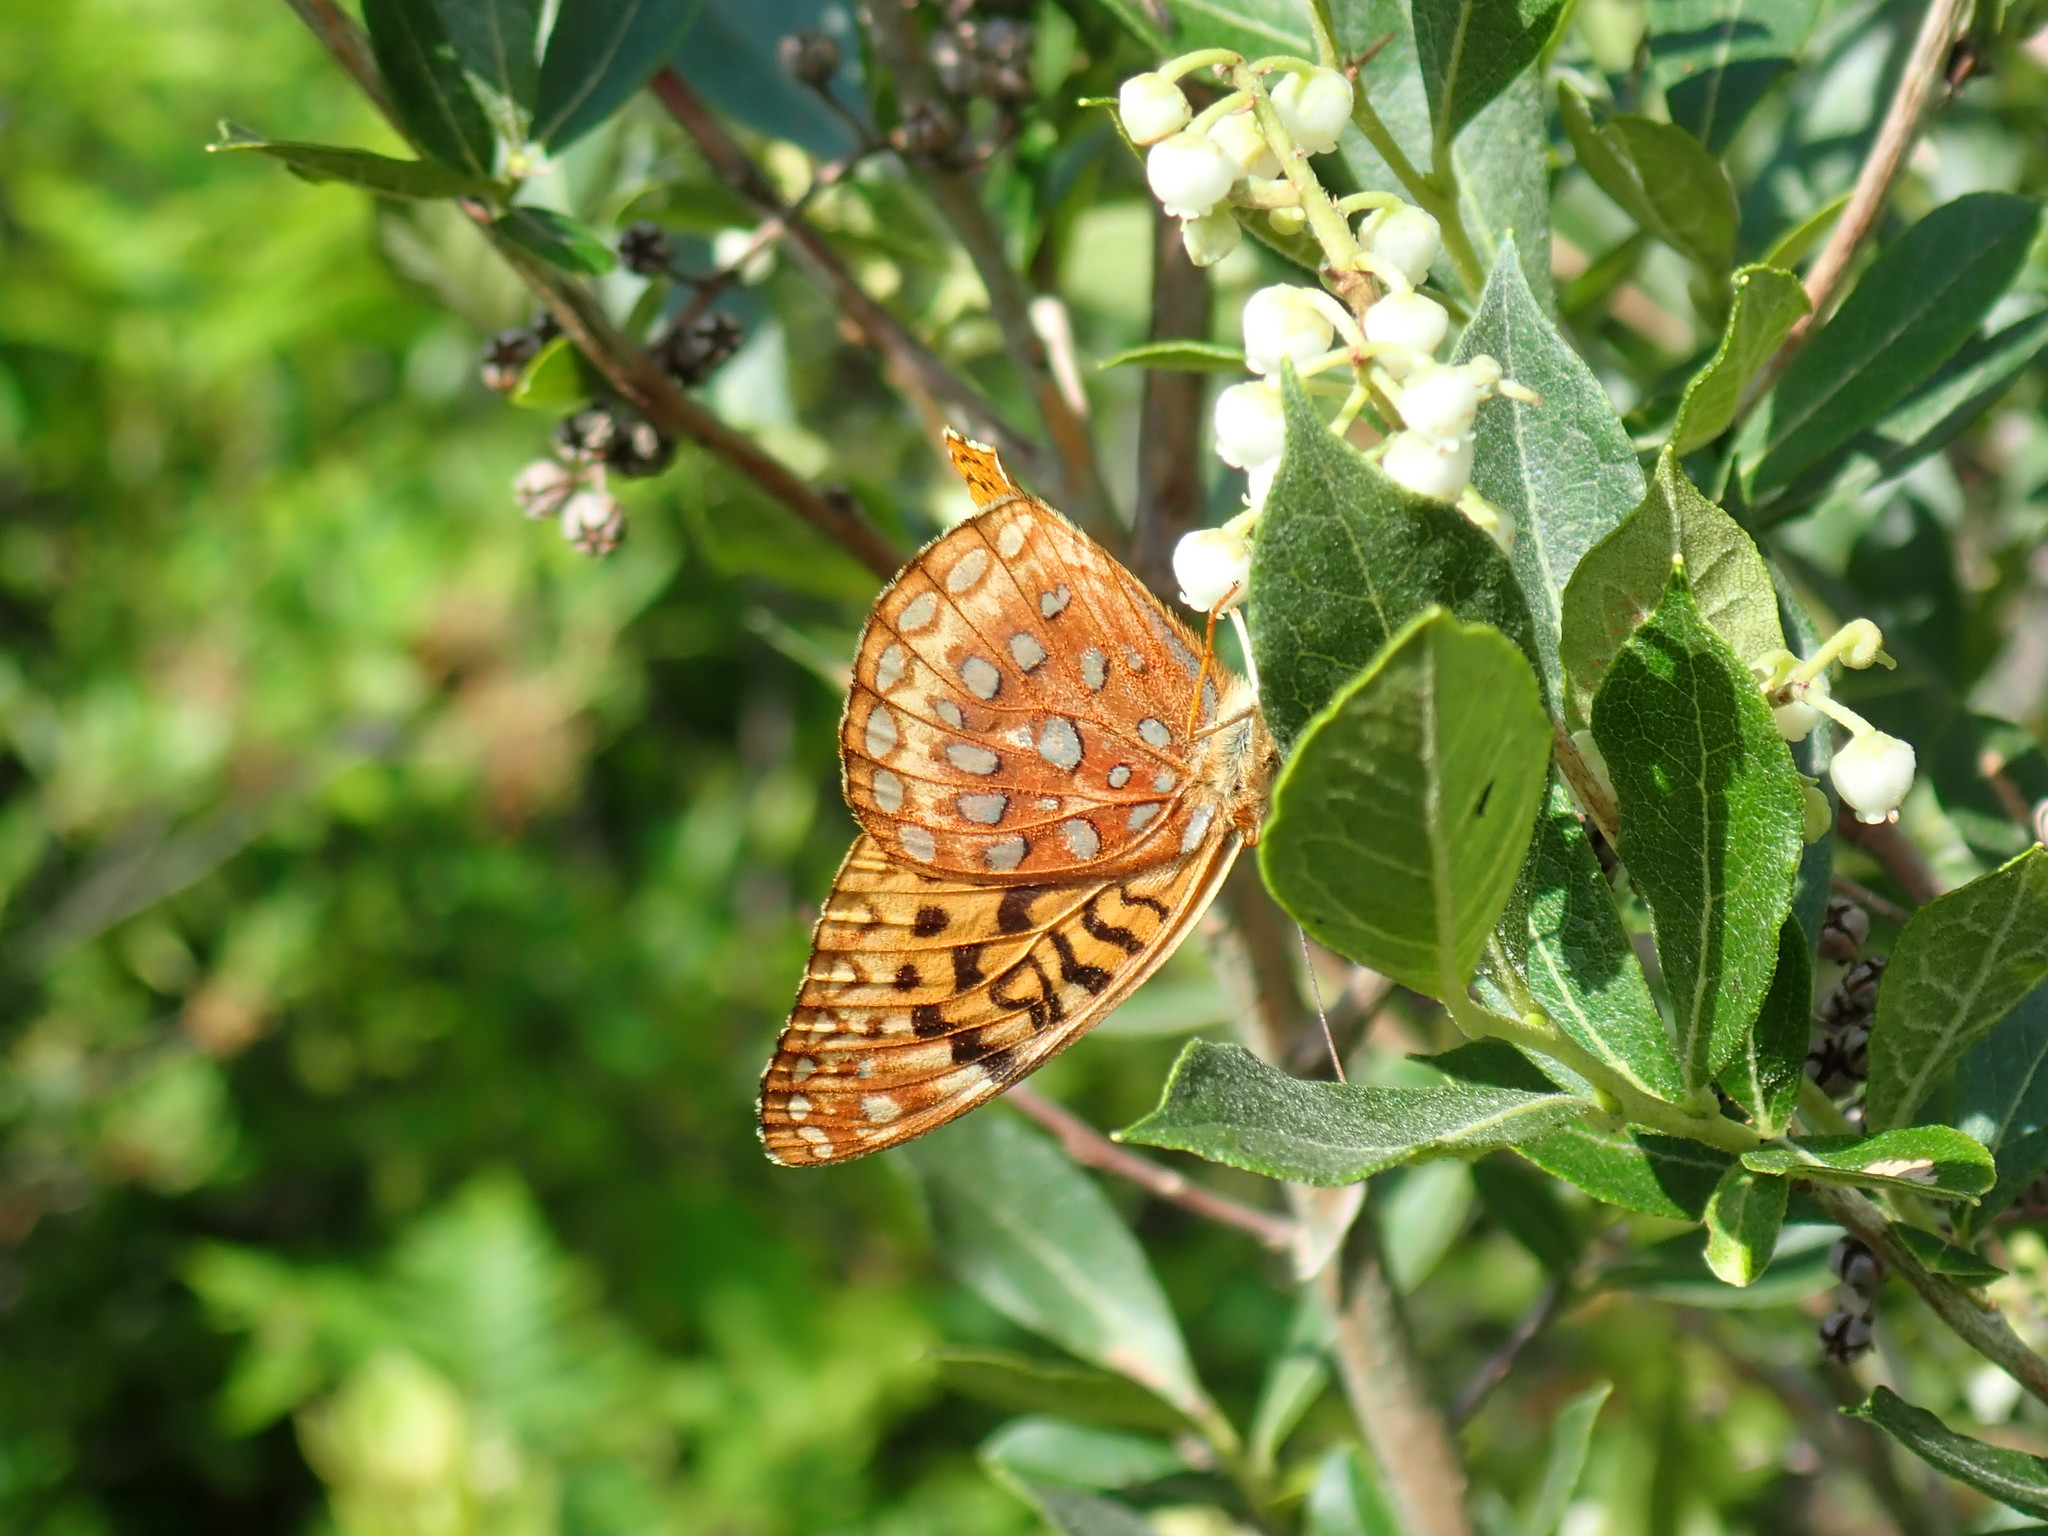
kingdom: Animalia
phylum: Arthropoda
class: Insecta
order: Lepidoptera
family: Nymphalidae
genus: Speyeria
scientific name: Speyeria aphrodite
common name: Aphrodite friitllary
